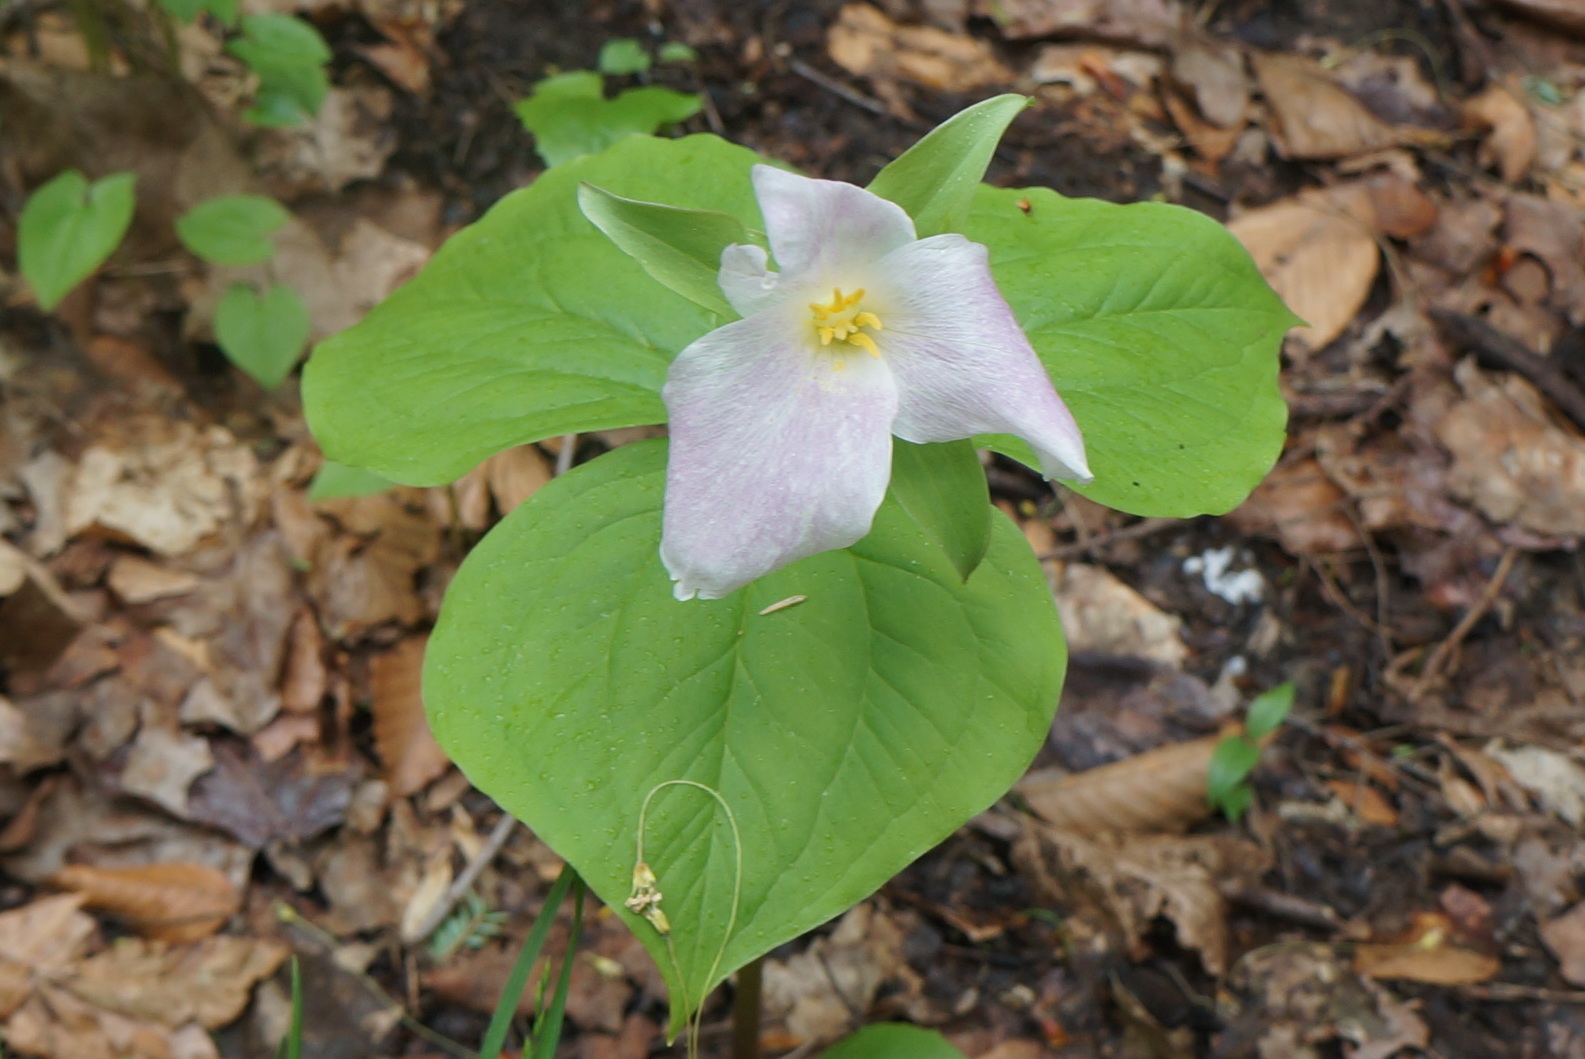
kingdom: Plantae
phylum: Tracheophyta
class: Liliopsida
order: Liliales
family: Melanthiaceae
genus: Trillium
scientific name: Trillium grandiflorum
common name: Great white trillium
